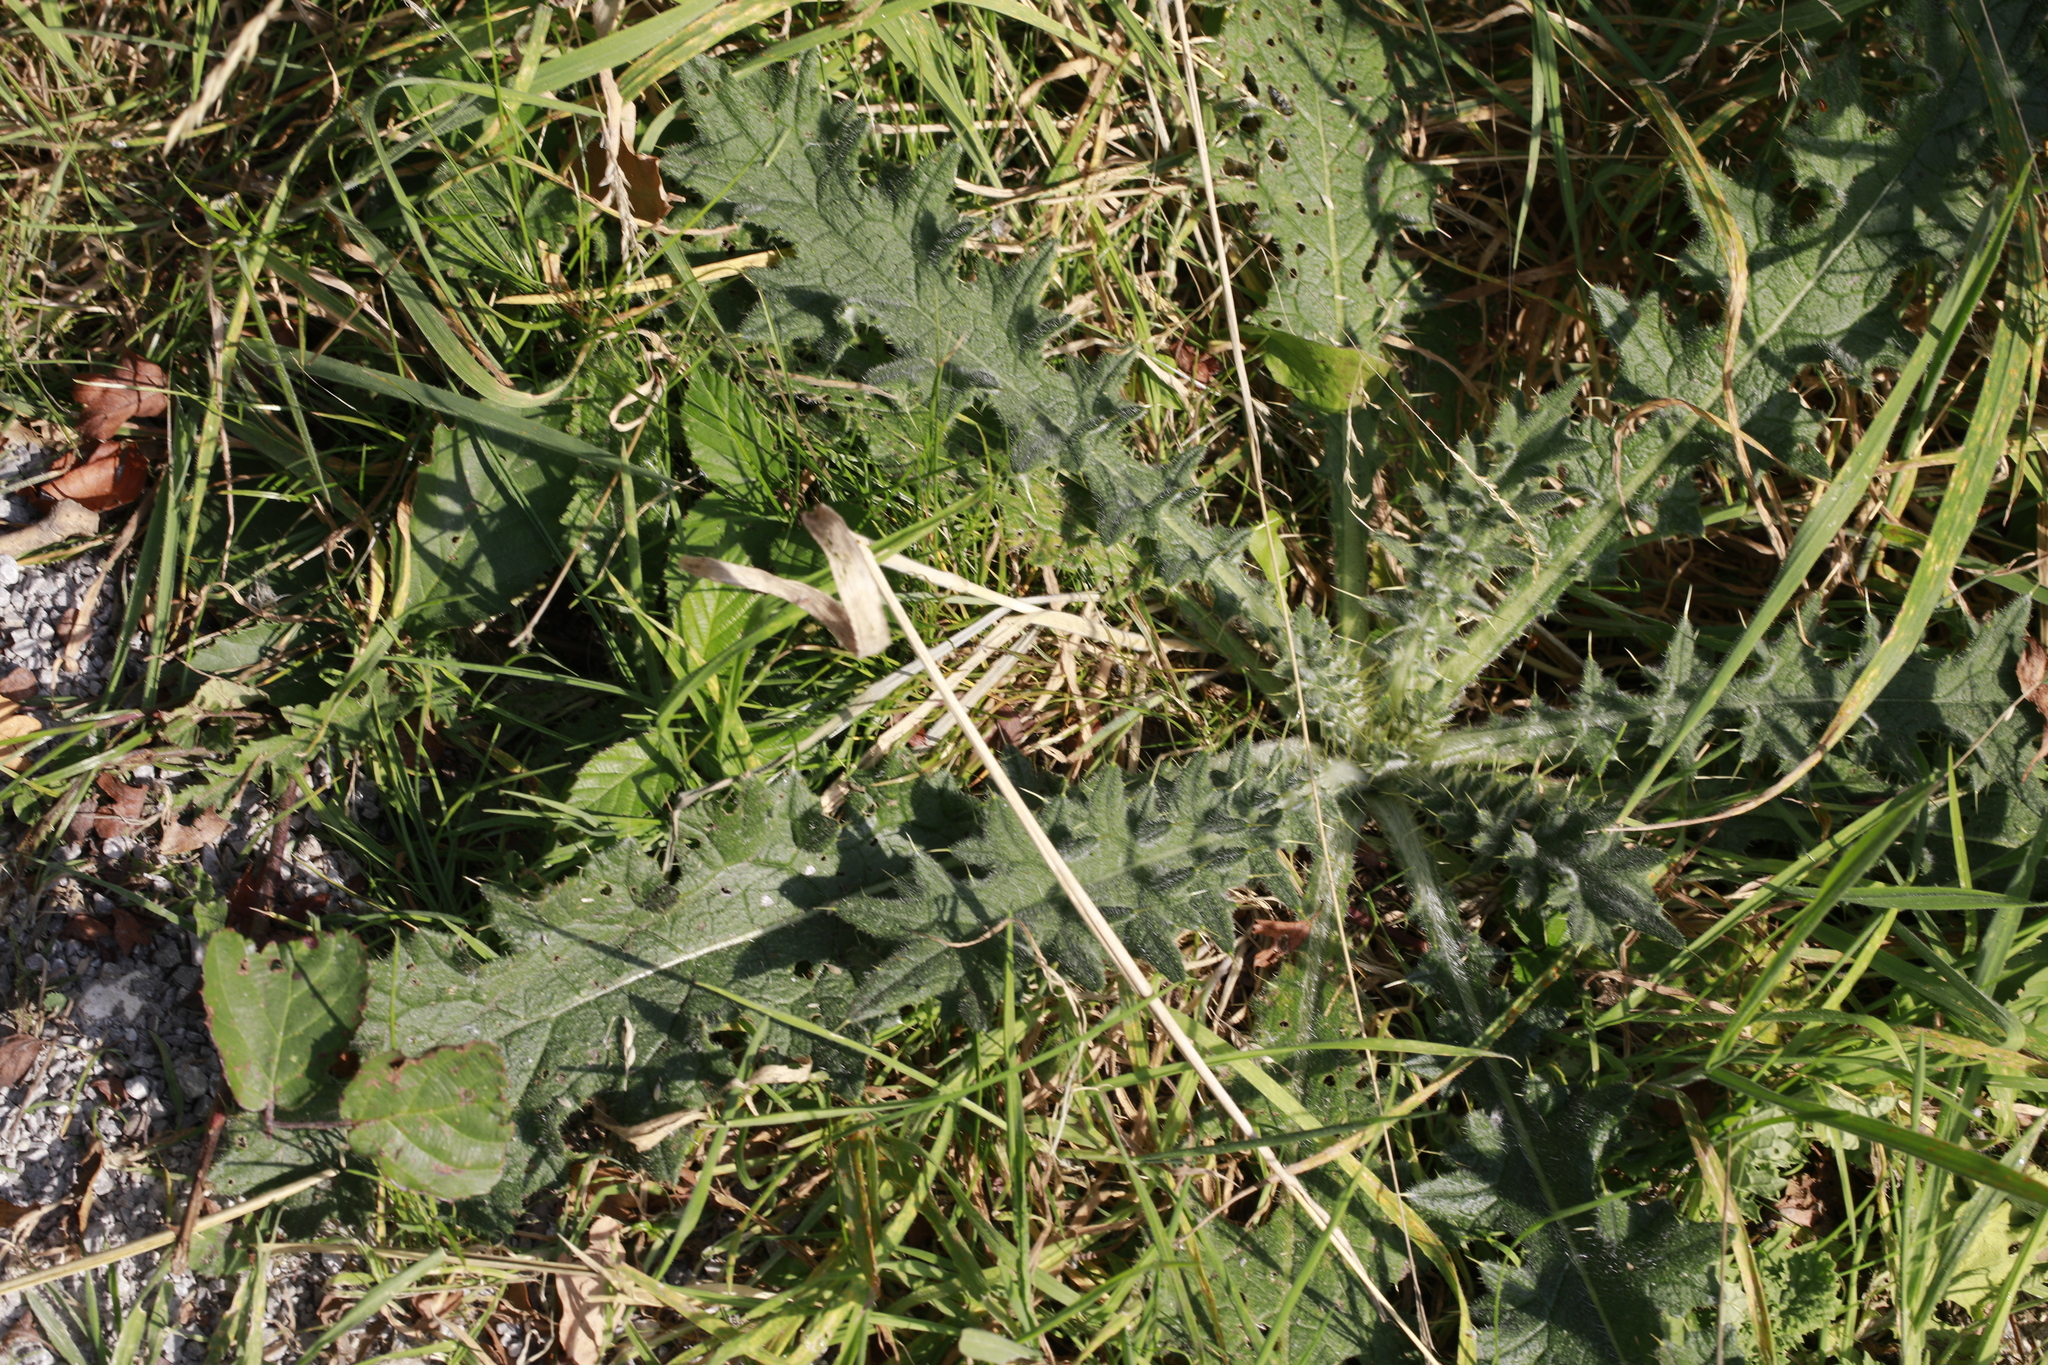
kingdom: Plantae
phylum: Tracheophyta
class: Magnoliopsida
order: Asterales
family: Asteraceae
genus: Cirsium
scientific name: Cirsium vulgare
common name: Bull thistle
